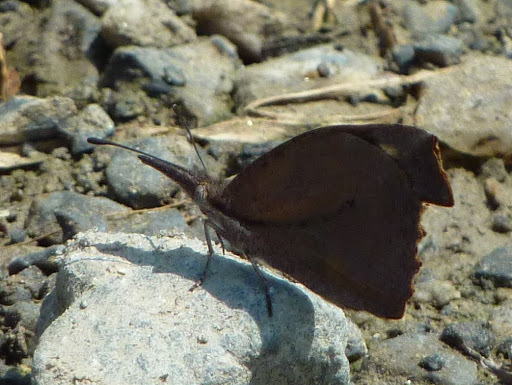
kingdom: Animalia
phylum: Arthropoda
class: Insecta
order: Lepidoptera
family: Nymphalidae
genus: Libytheana
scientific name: Libytheana carinenta
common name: American snout
